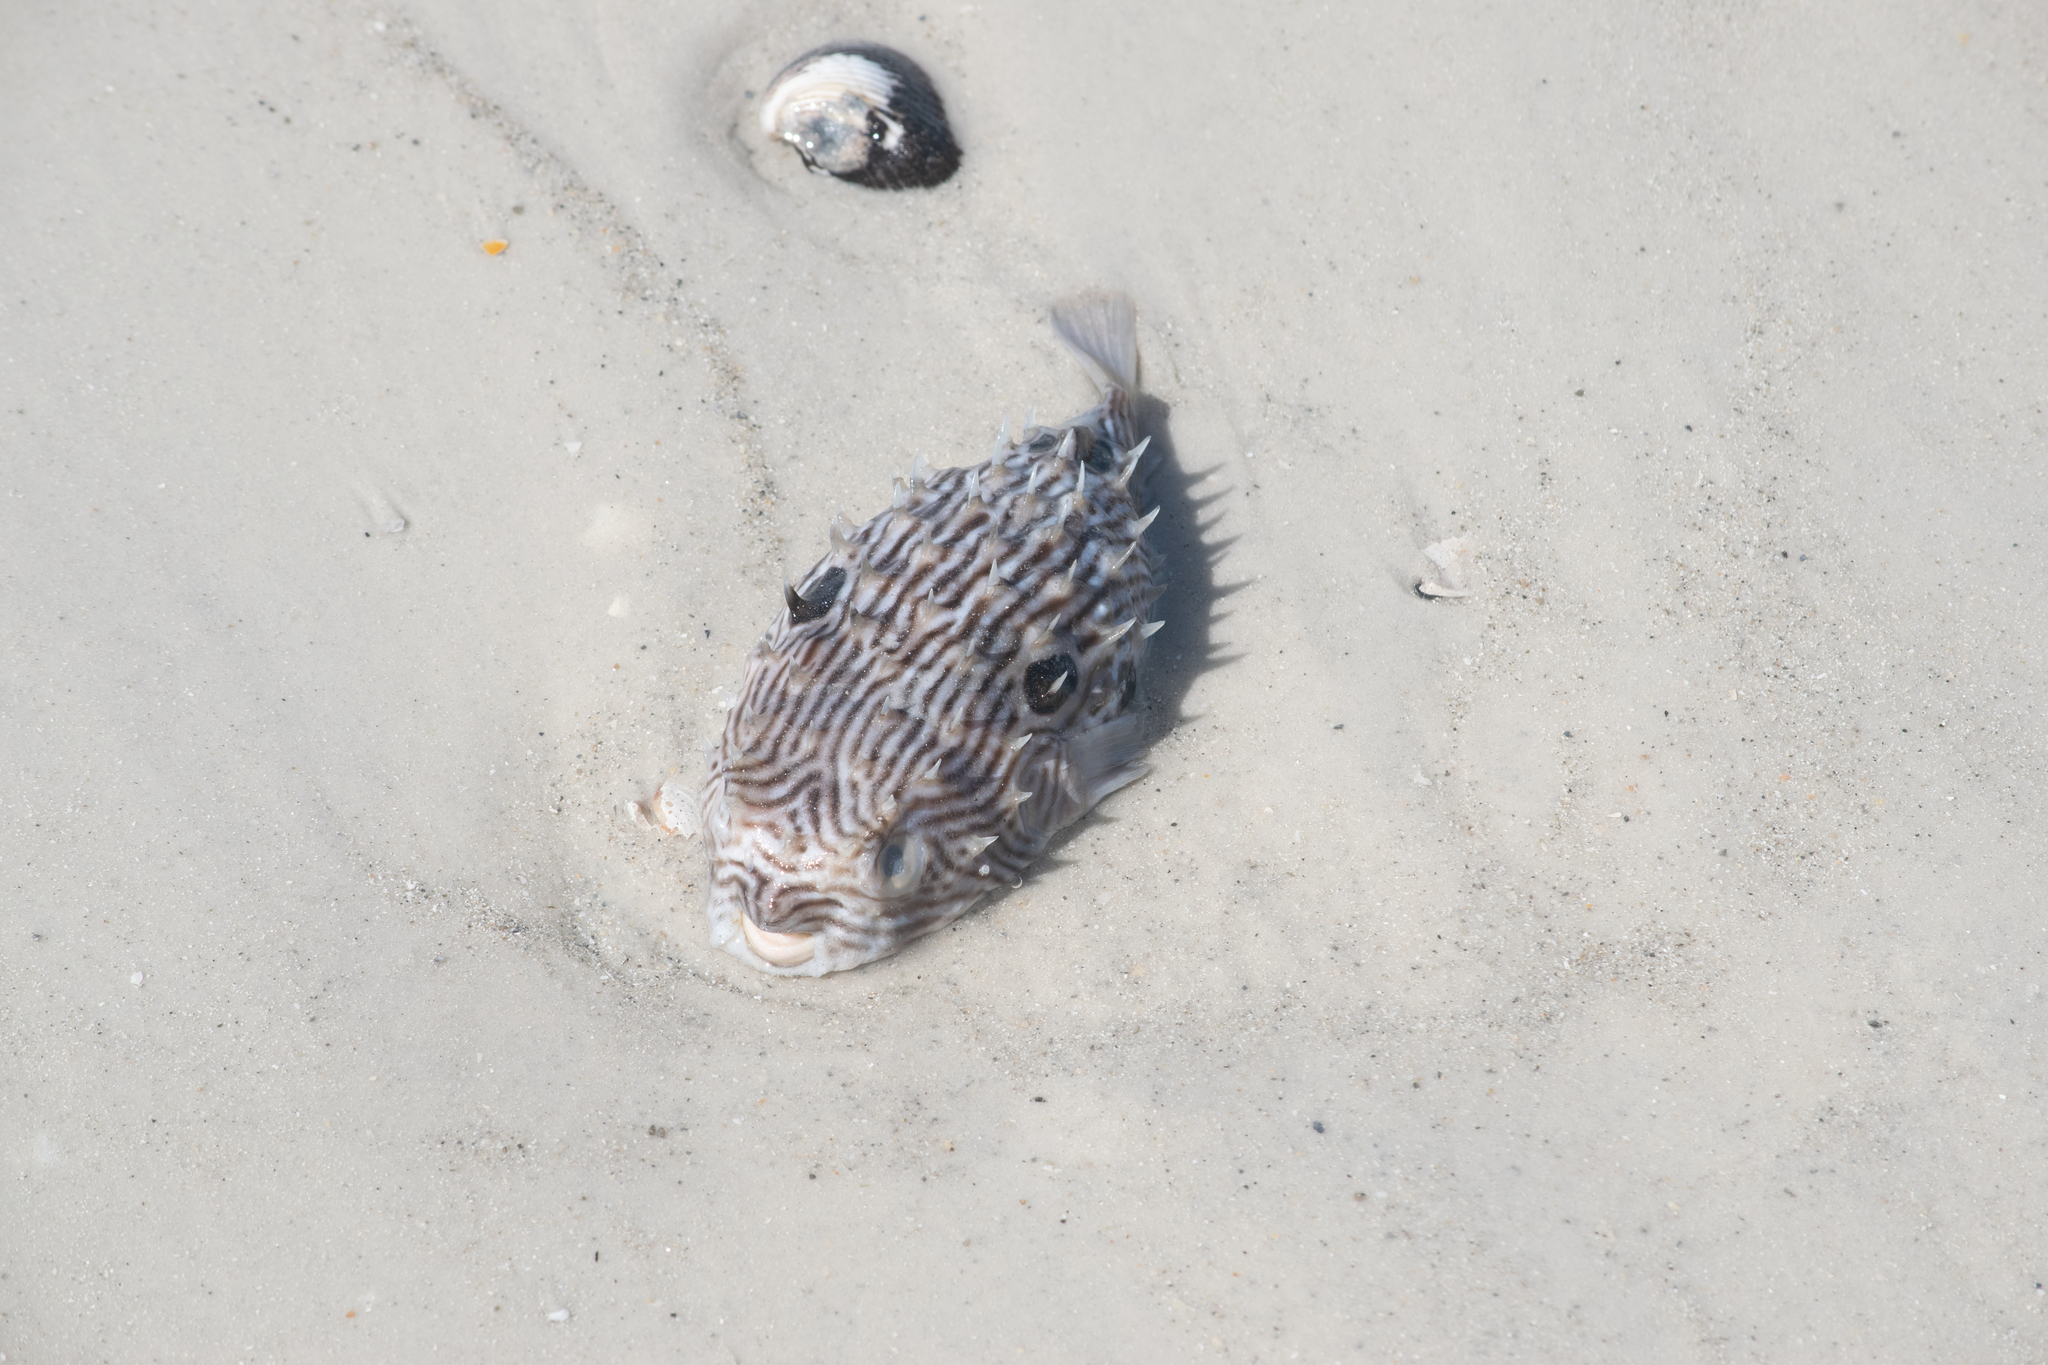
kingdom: Animalia
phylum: Chordata
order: Tetraodontiformes
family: Diodontidae
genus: Chilomycterus
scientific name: Chilomycterus schoepfii
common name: Striped burrfish
